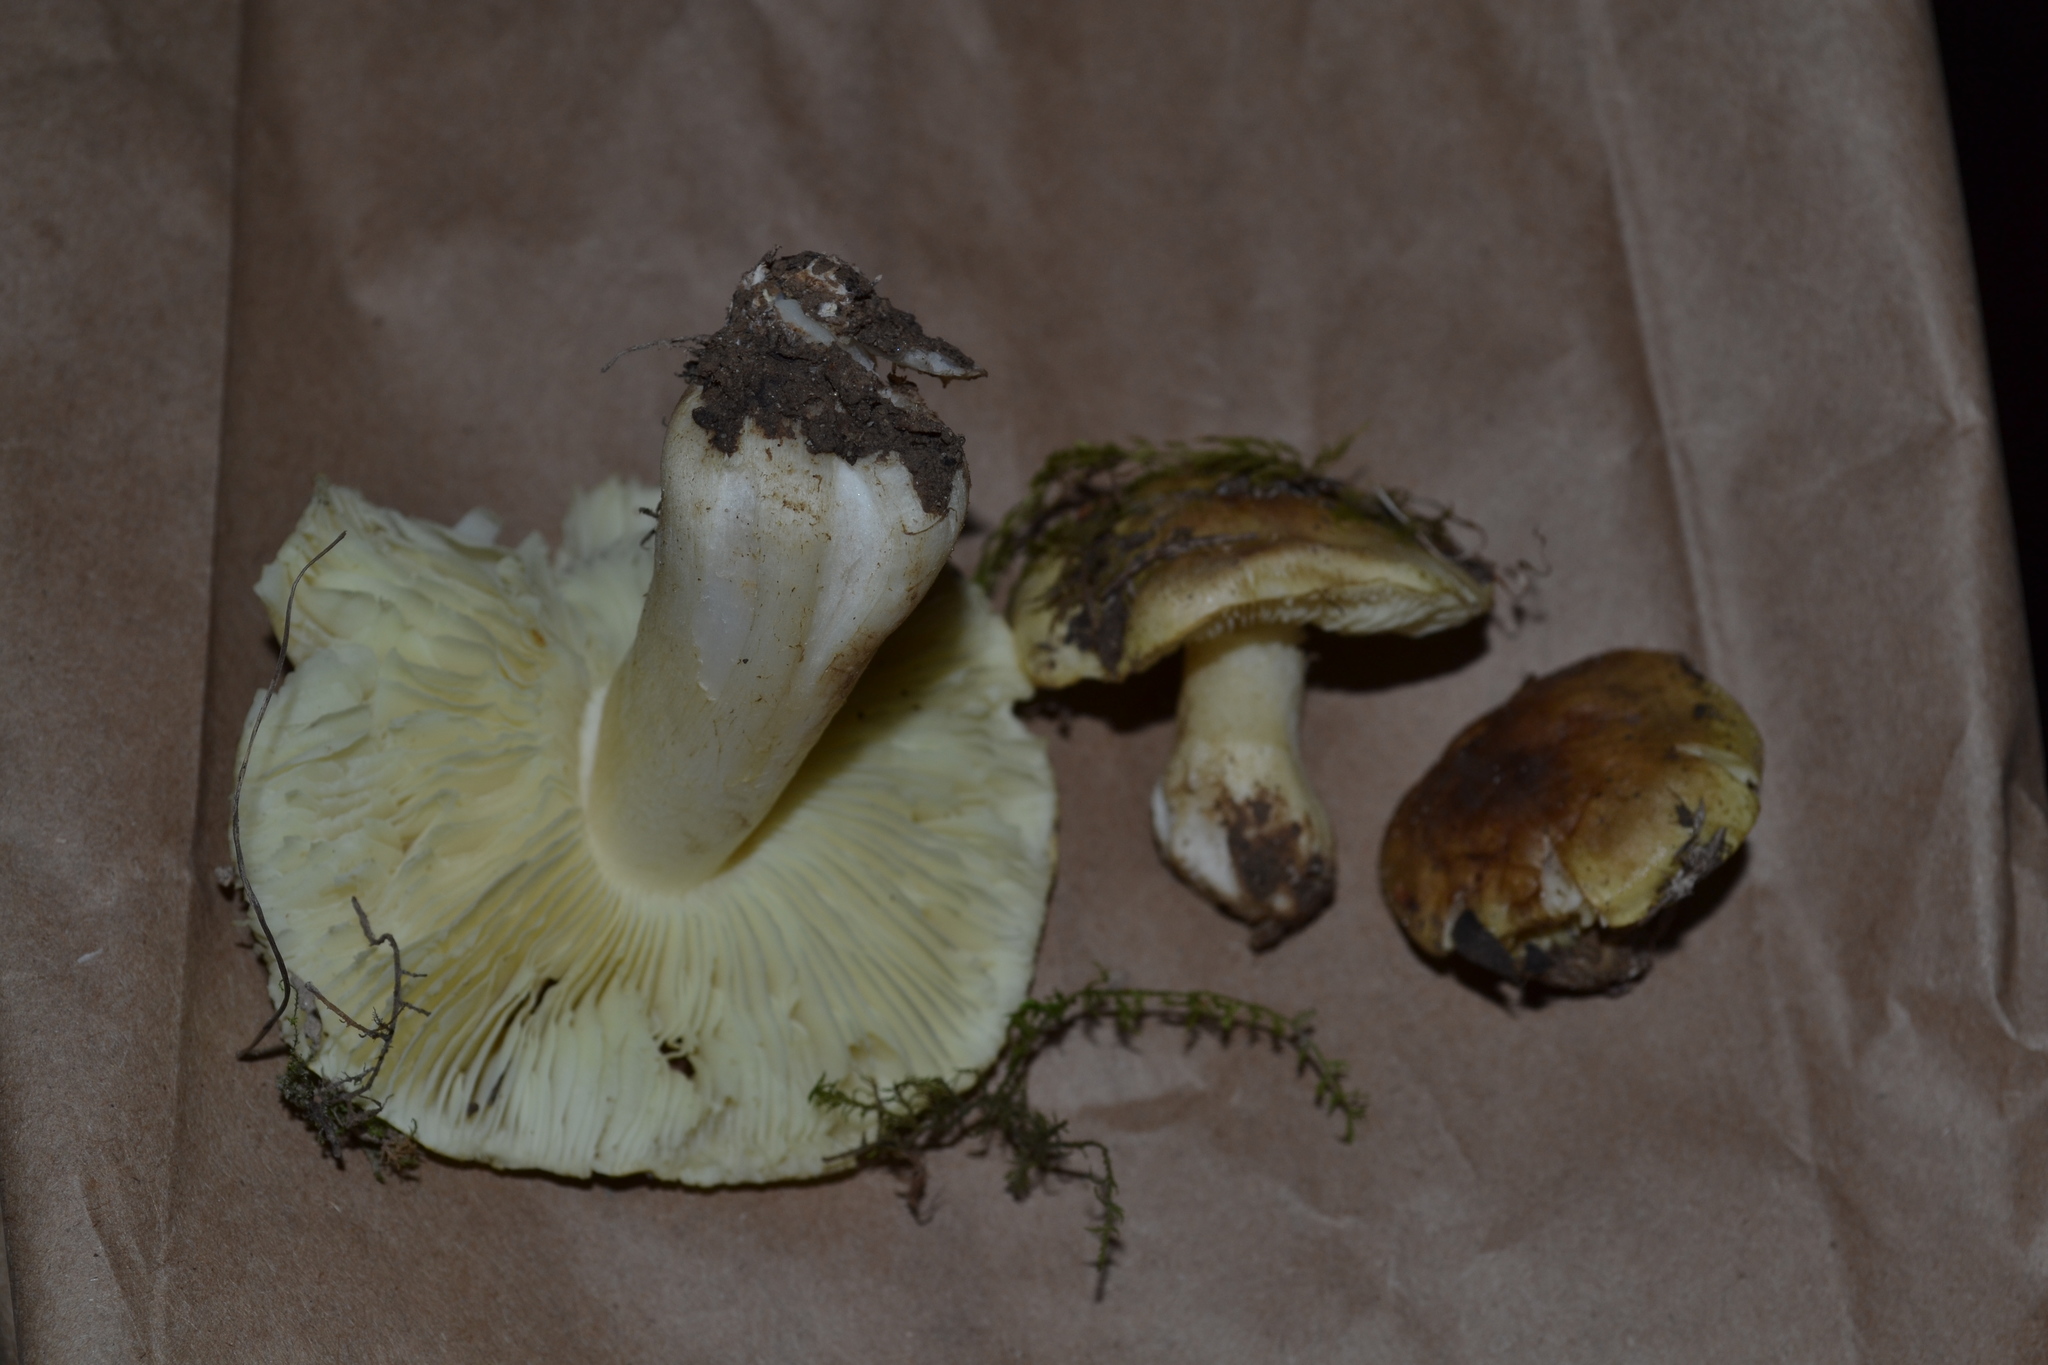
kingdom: Fungi
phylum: Basidiomycota
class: Agaricomycetes
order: Agaricales
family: Tricholomataceae
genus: Tricholoma
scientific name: Tricholoma aestuans
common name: Acrid knight
